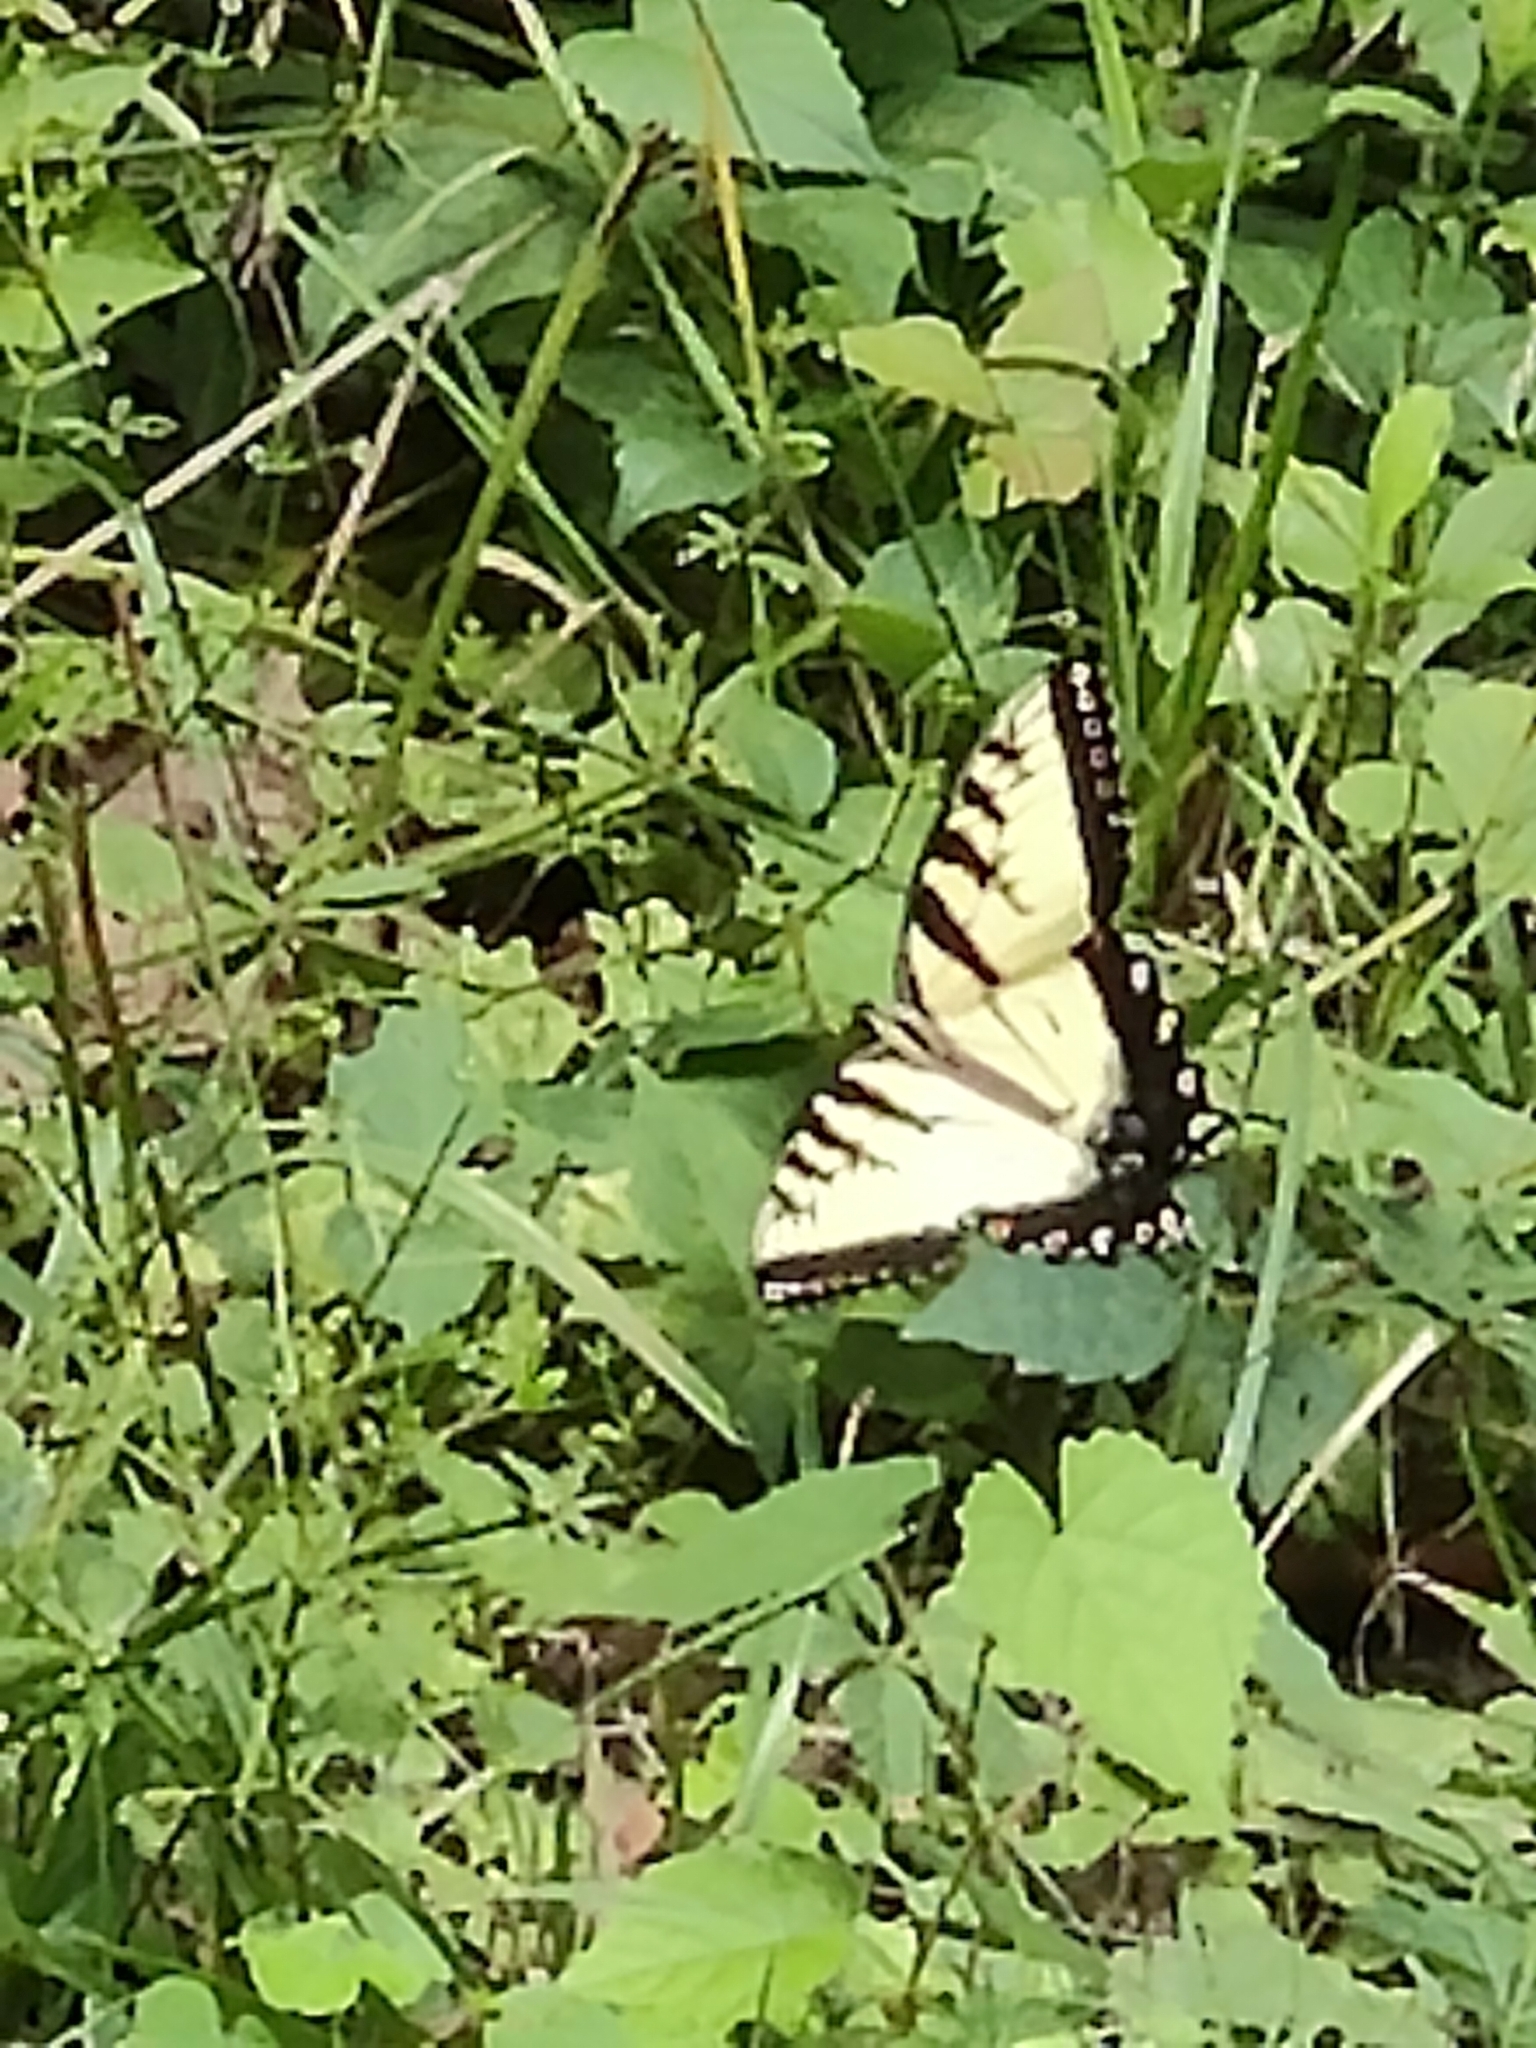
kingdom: Animalia
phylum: Arthropoda
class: Insecta
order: Lepidoptera
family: Papilionidae
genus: Papilio
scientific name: Papilio glaucus
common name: Tiger swallowtail
